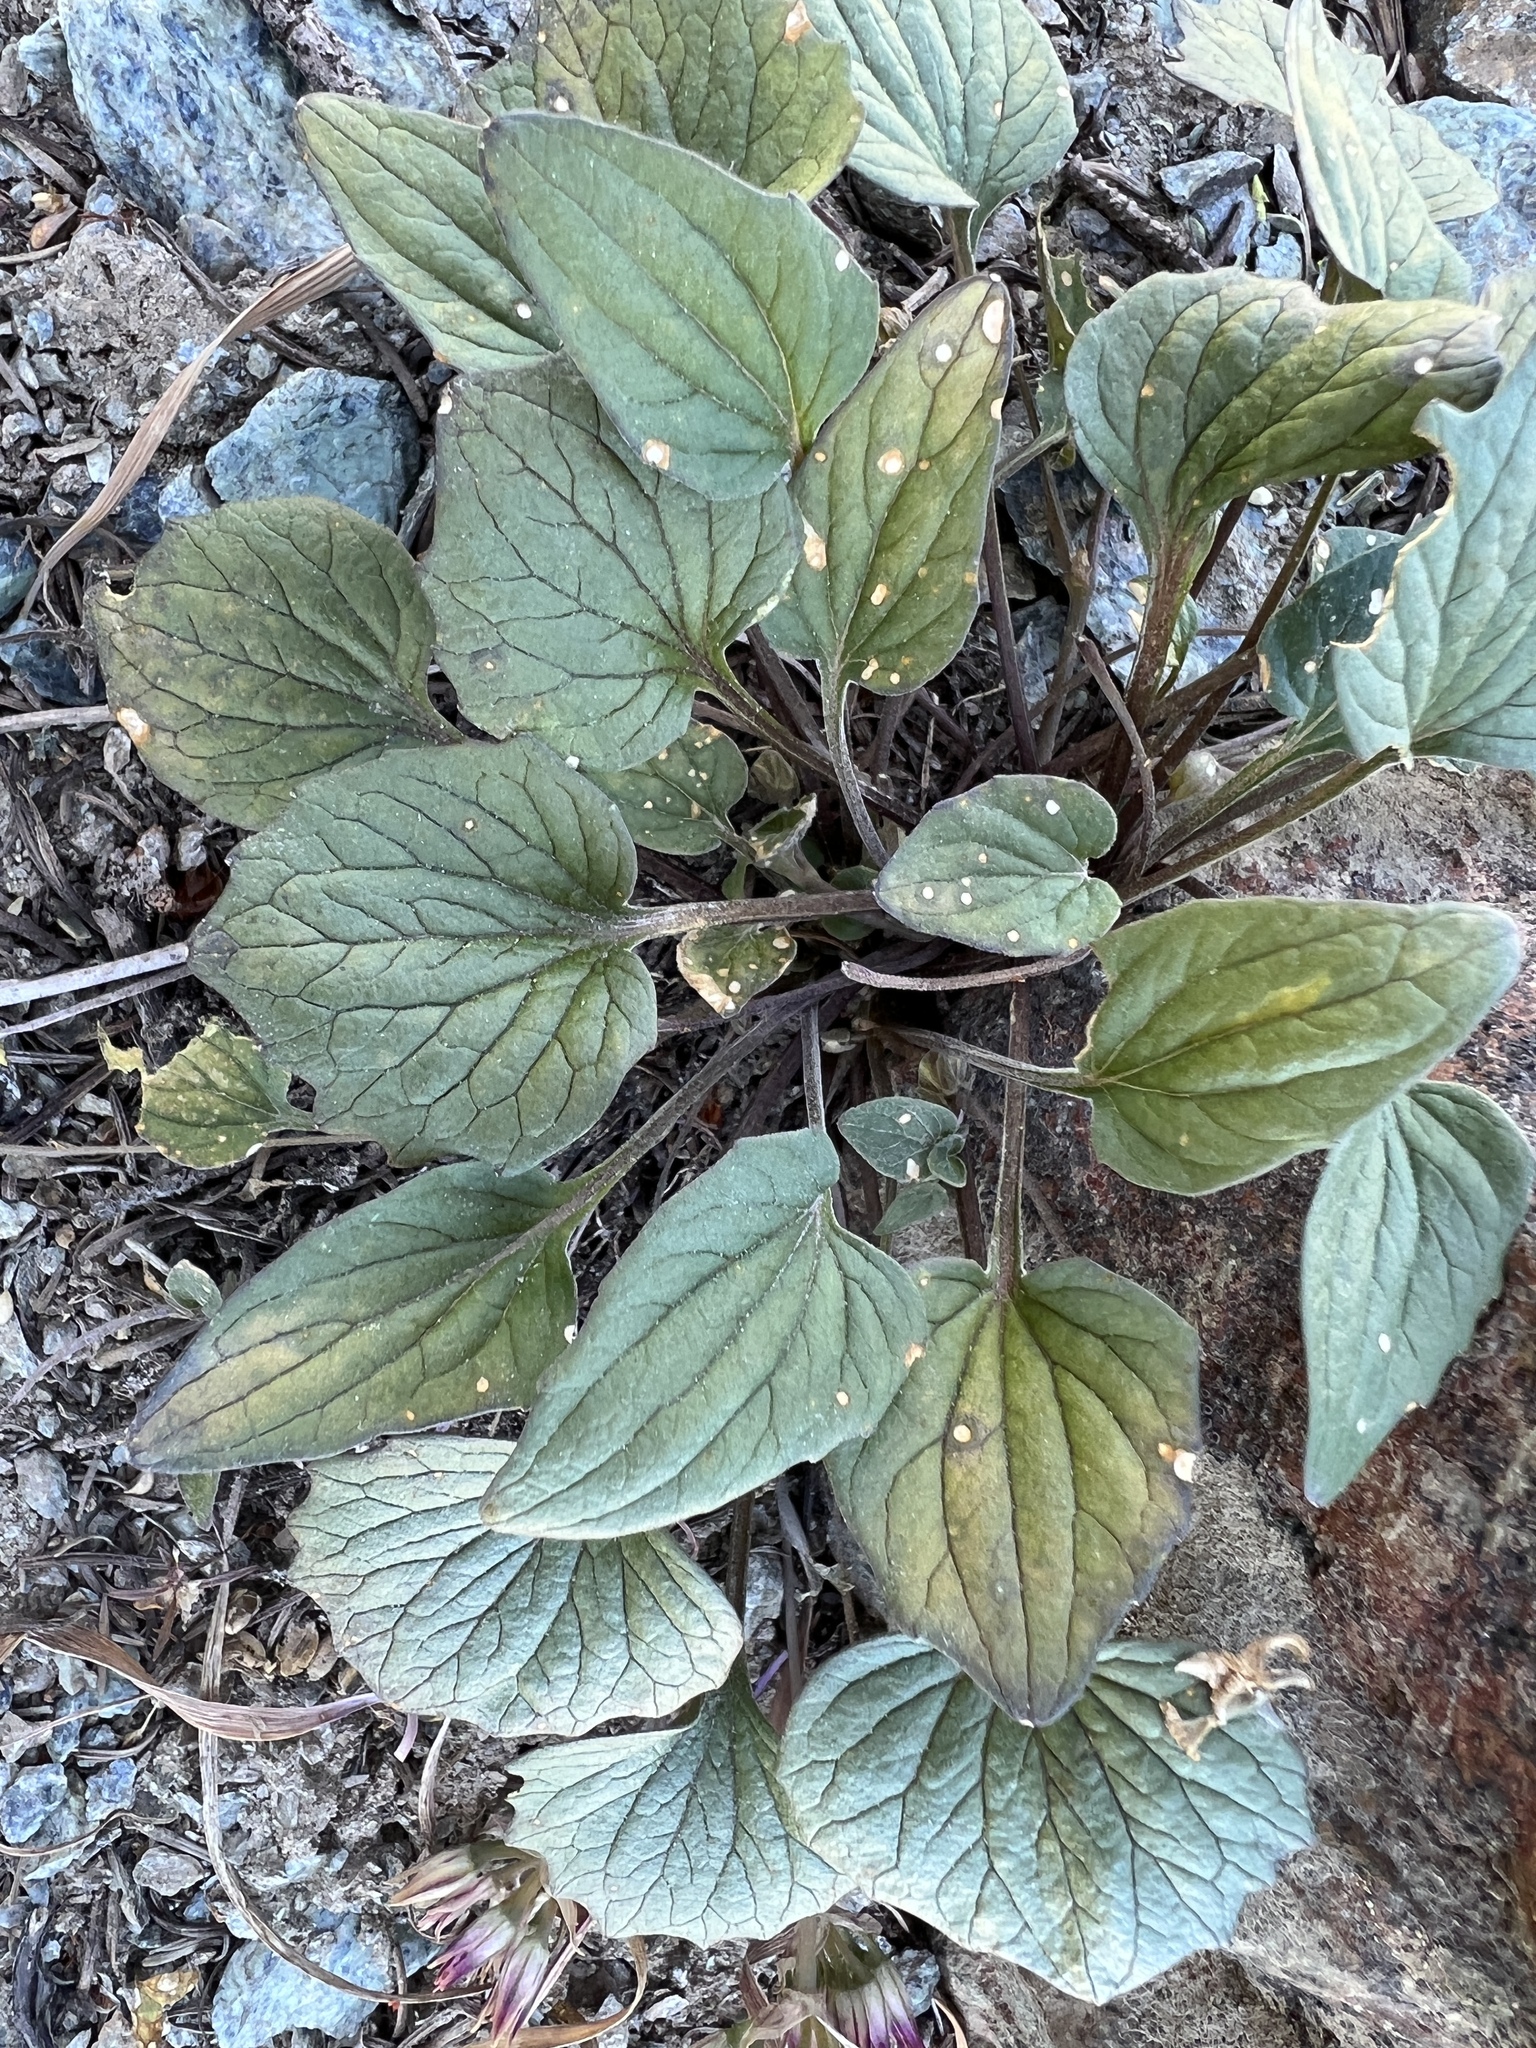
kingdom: Plantae
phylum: Tracheophyta
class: Magnoliopsida
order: Malpighiales
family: Violaceae
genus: Viola
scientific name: Viola purpurea
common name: Pine violet
